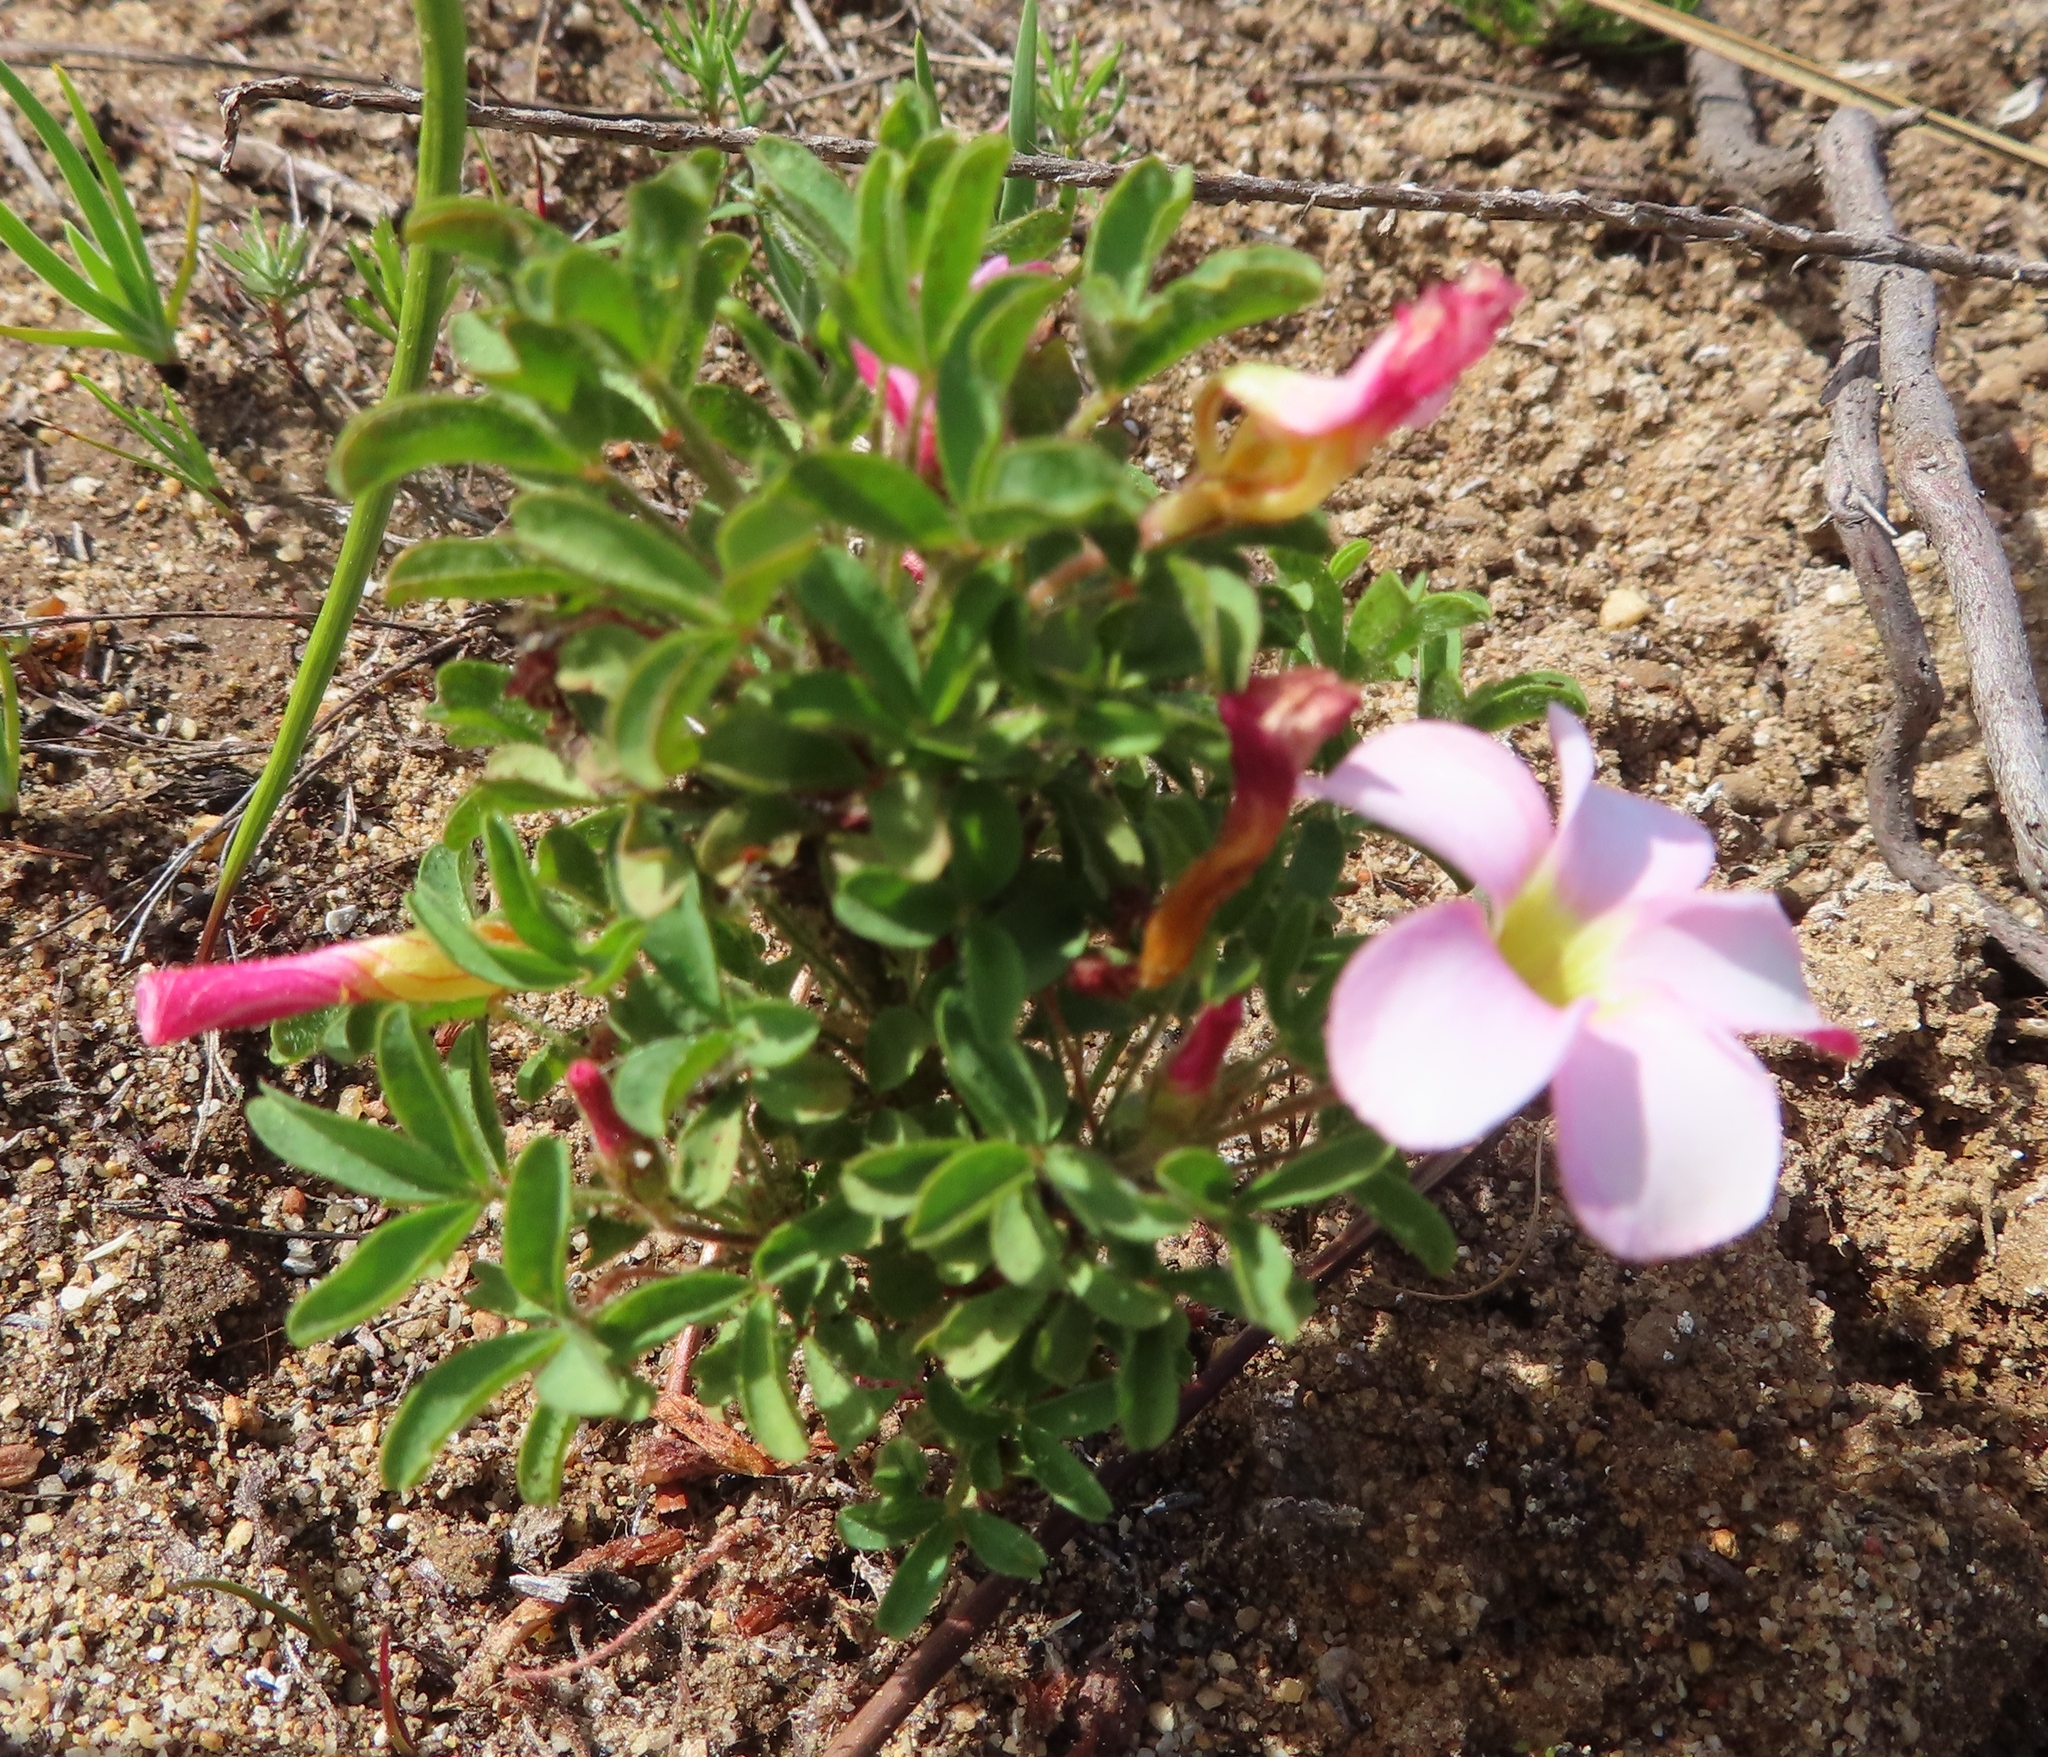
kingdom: Plantae
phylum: Tracheophyta
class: Magnoliopsida
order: Oxalidales
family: Oxalidaceae
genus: Oxalis
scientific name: Oxalis multicaulis
